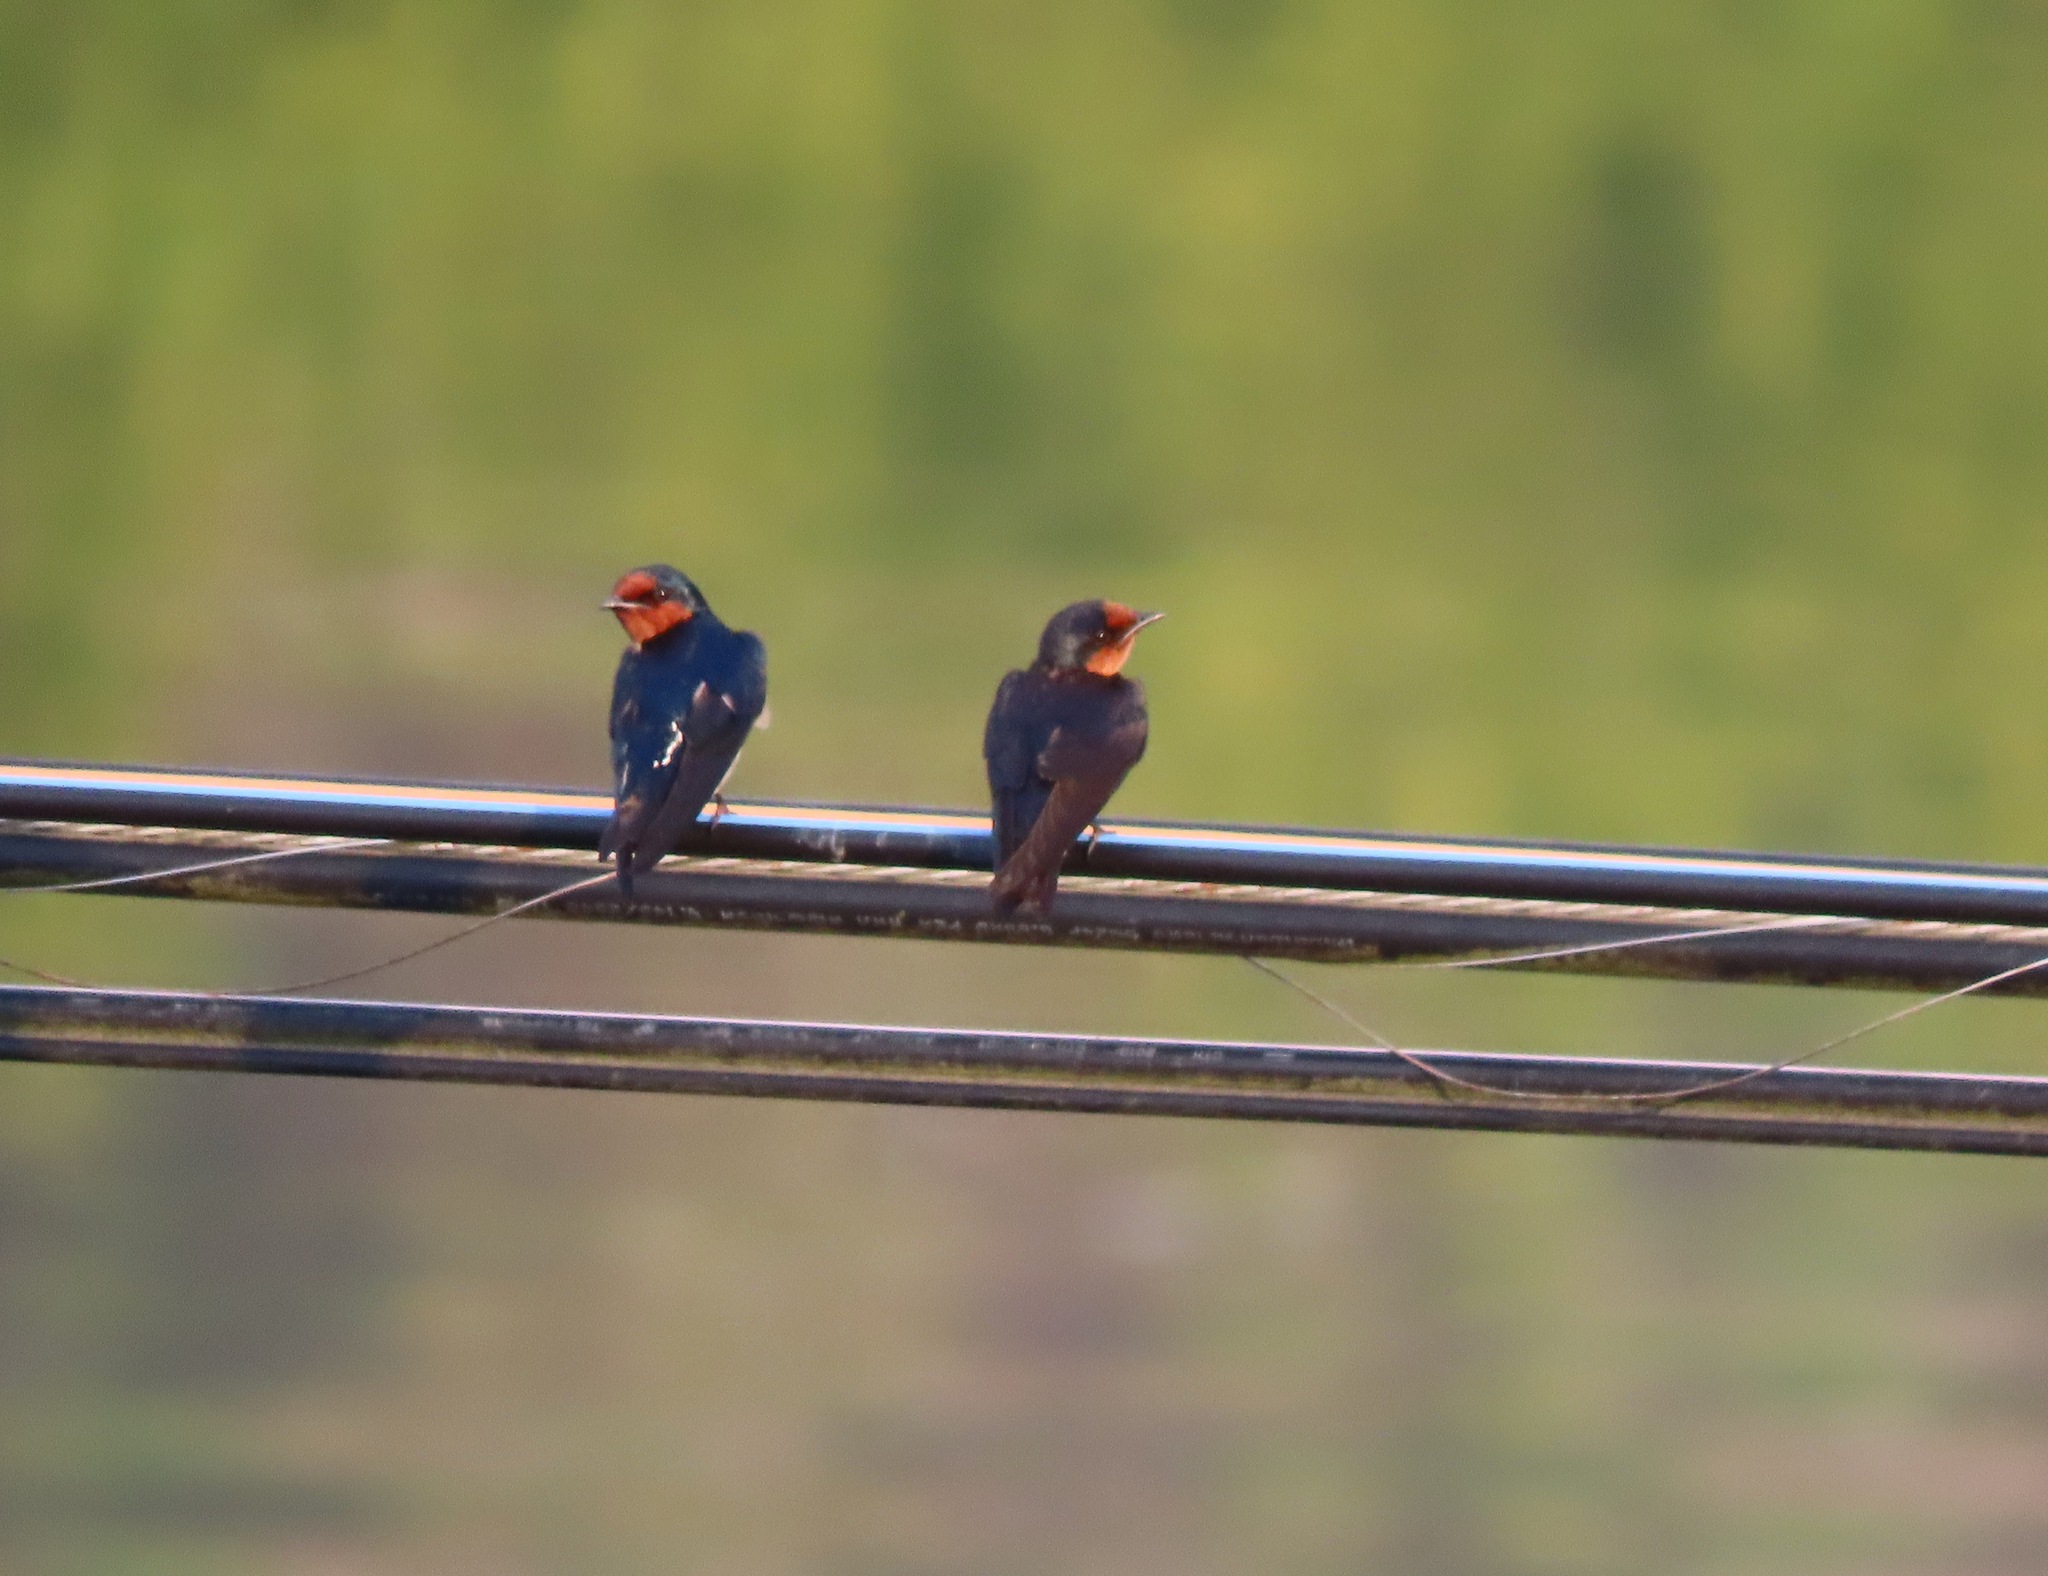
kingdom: Animalia
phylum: Chordata
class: Aves
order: Passeriformes
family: Hirundinidae
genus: Hirundo
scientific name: Hirundo tahitica
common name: Pacific swallow
